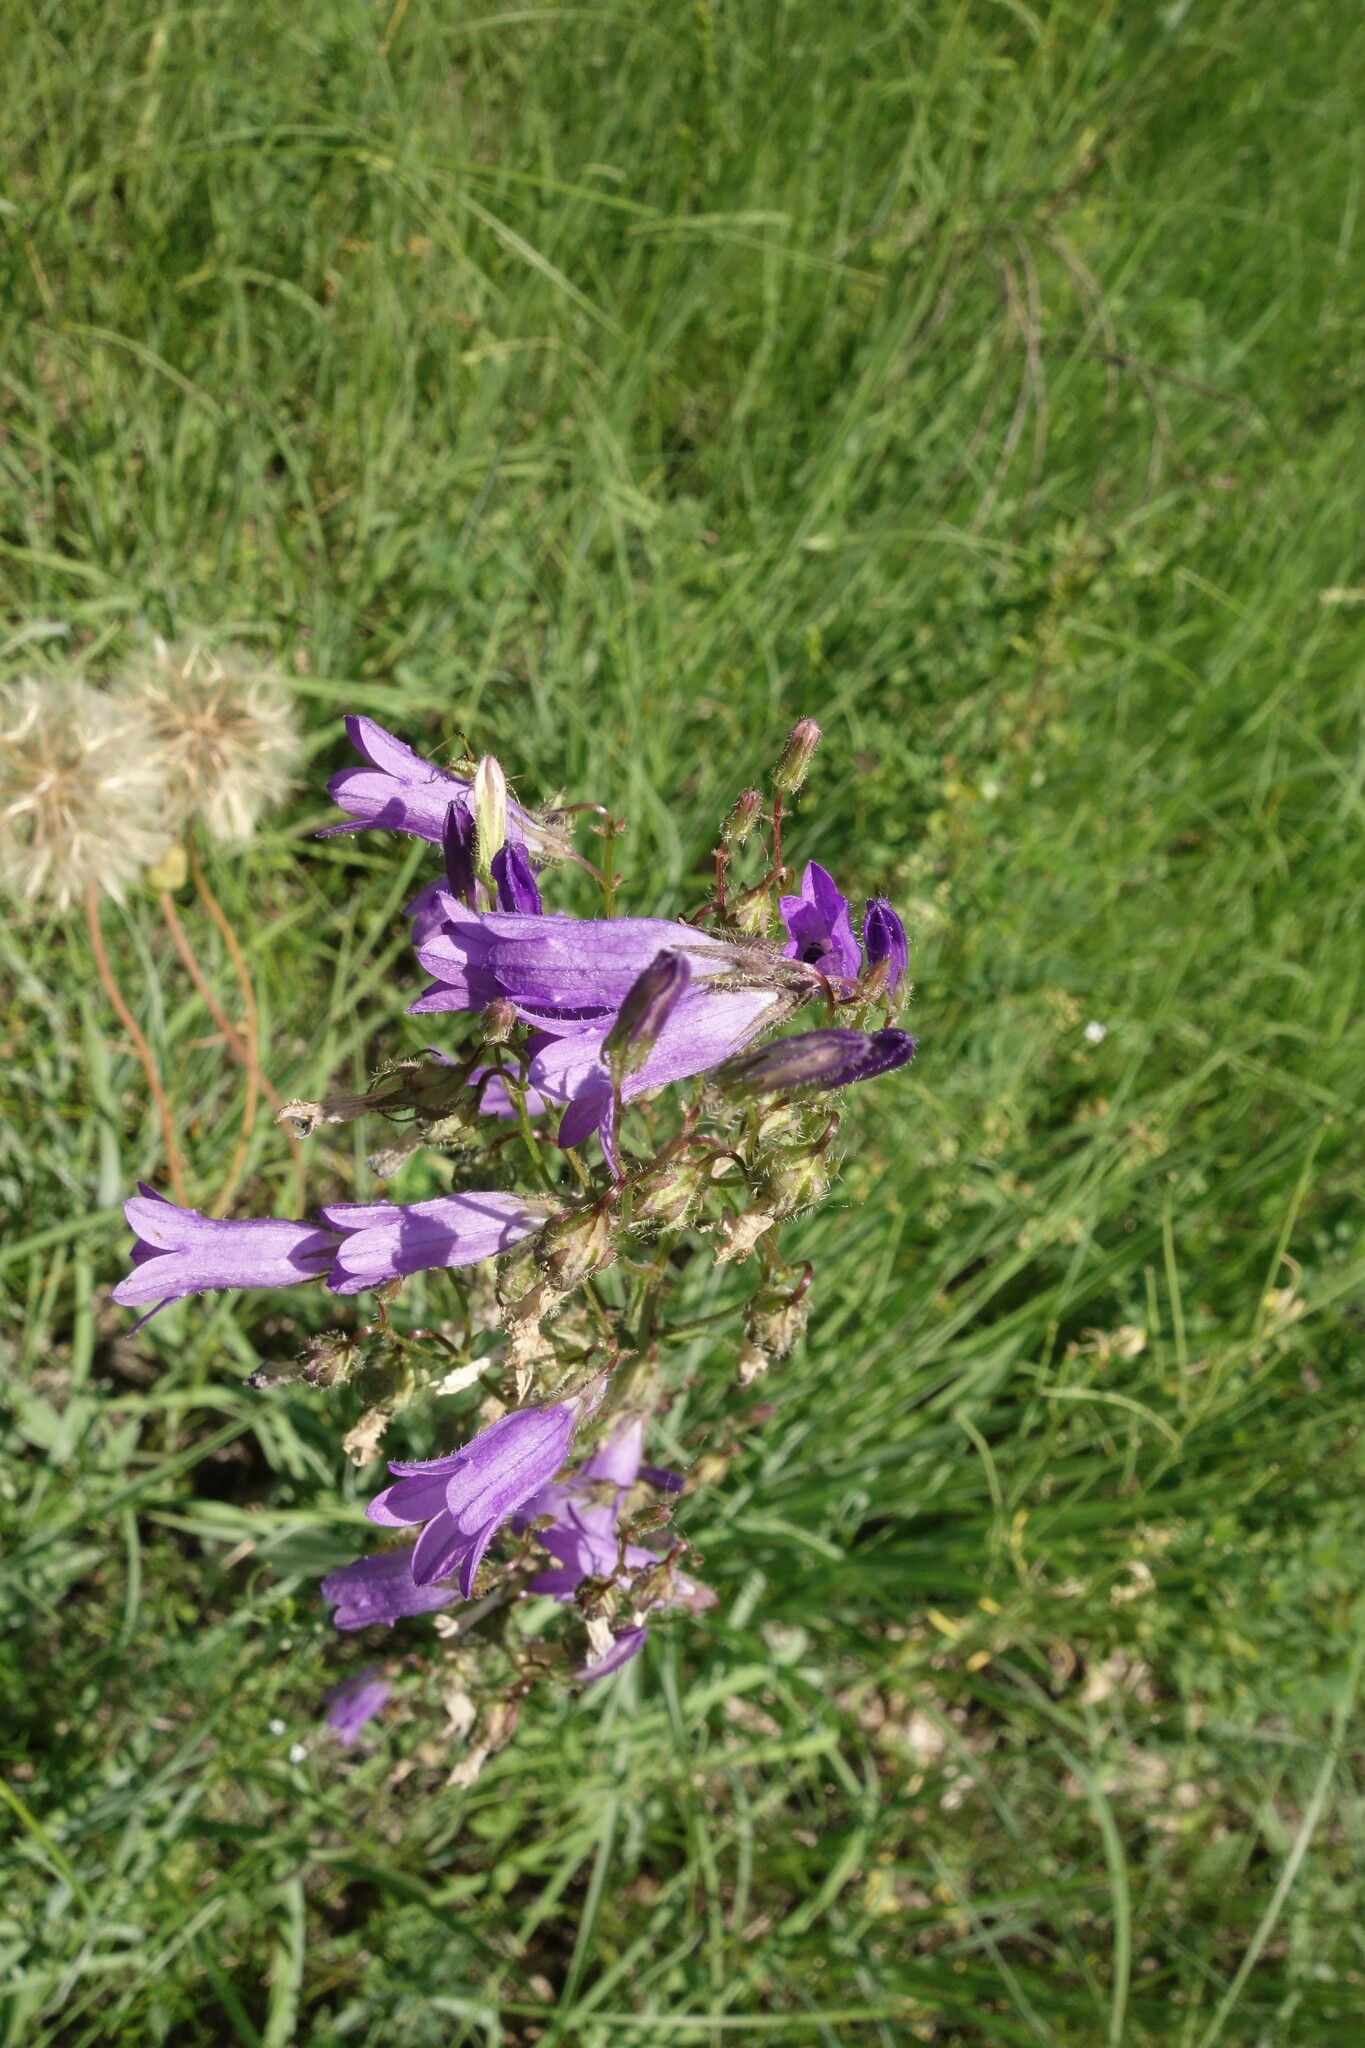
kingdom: Plantae
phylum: Tracheophyta
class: Magnoliopsida
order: Asterales
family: Campanulaceae
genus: Campanula
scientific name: Campanula sibirica
